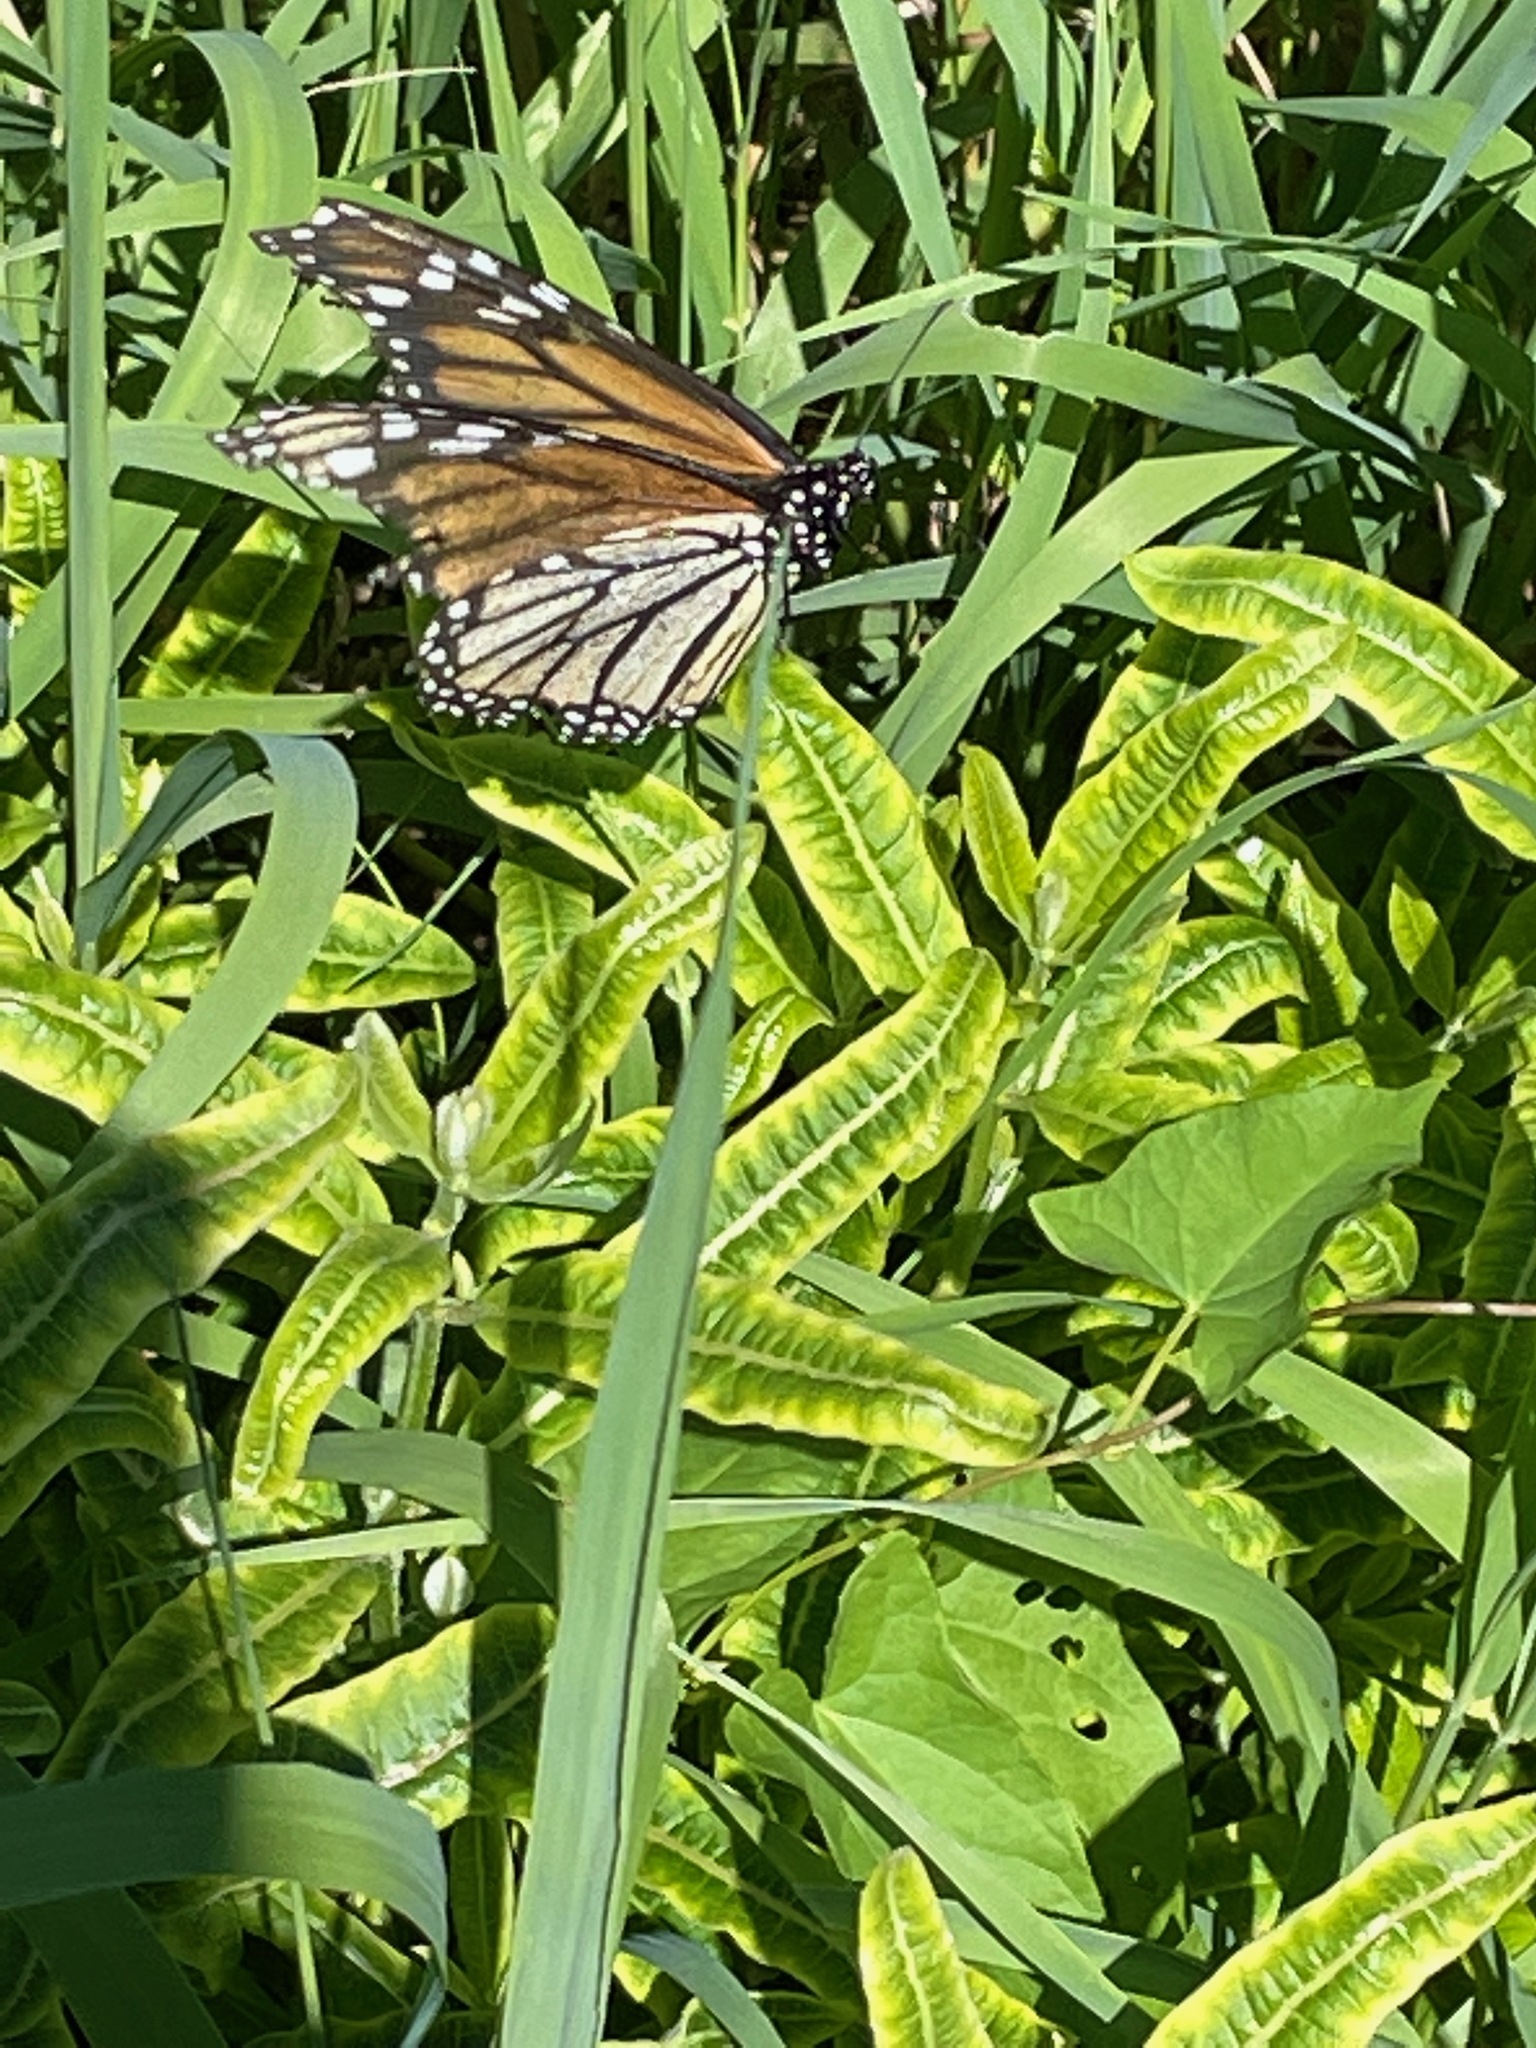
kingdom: Animalia
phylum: Arthropoda
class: Insecta
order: Lepidoptera
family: Nymphalidae
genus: Danaus
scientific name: Danaus plexippus
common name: Monarch
